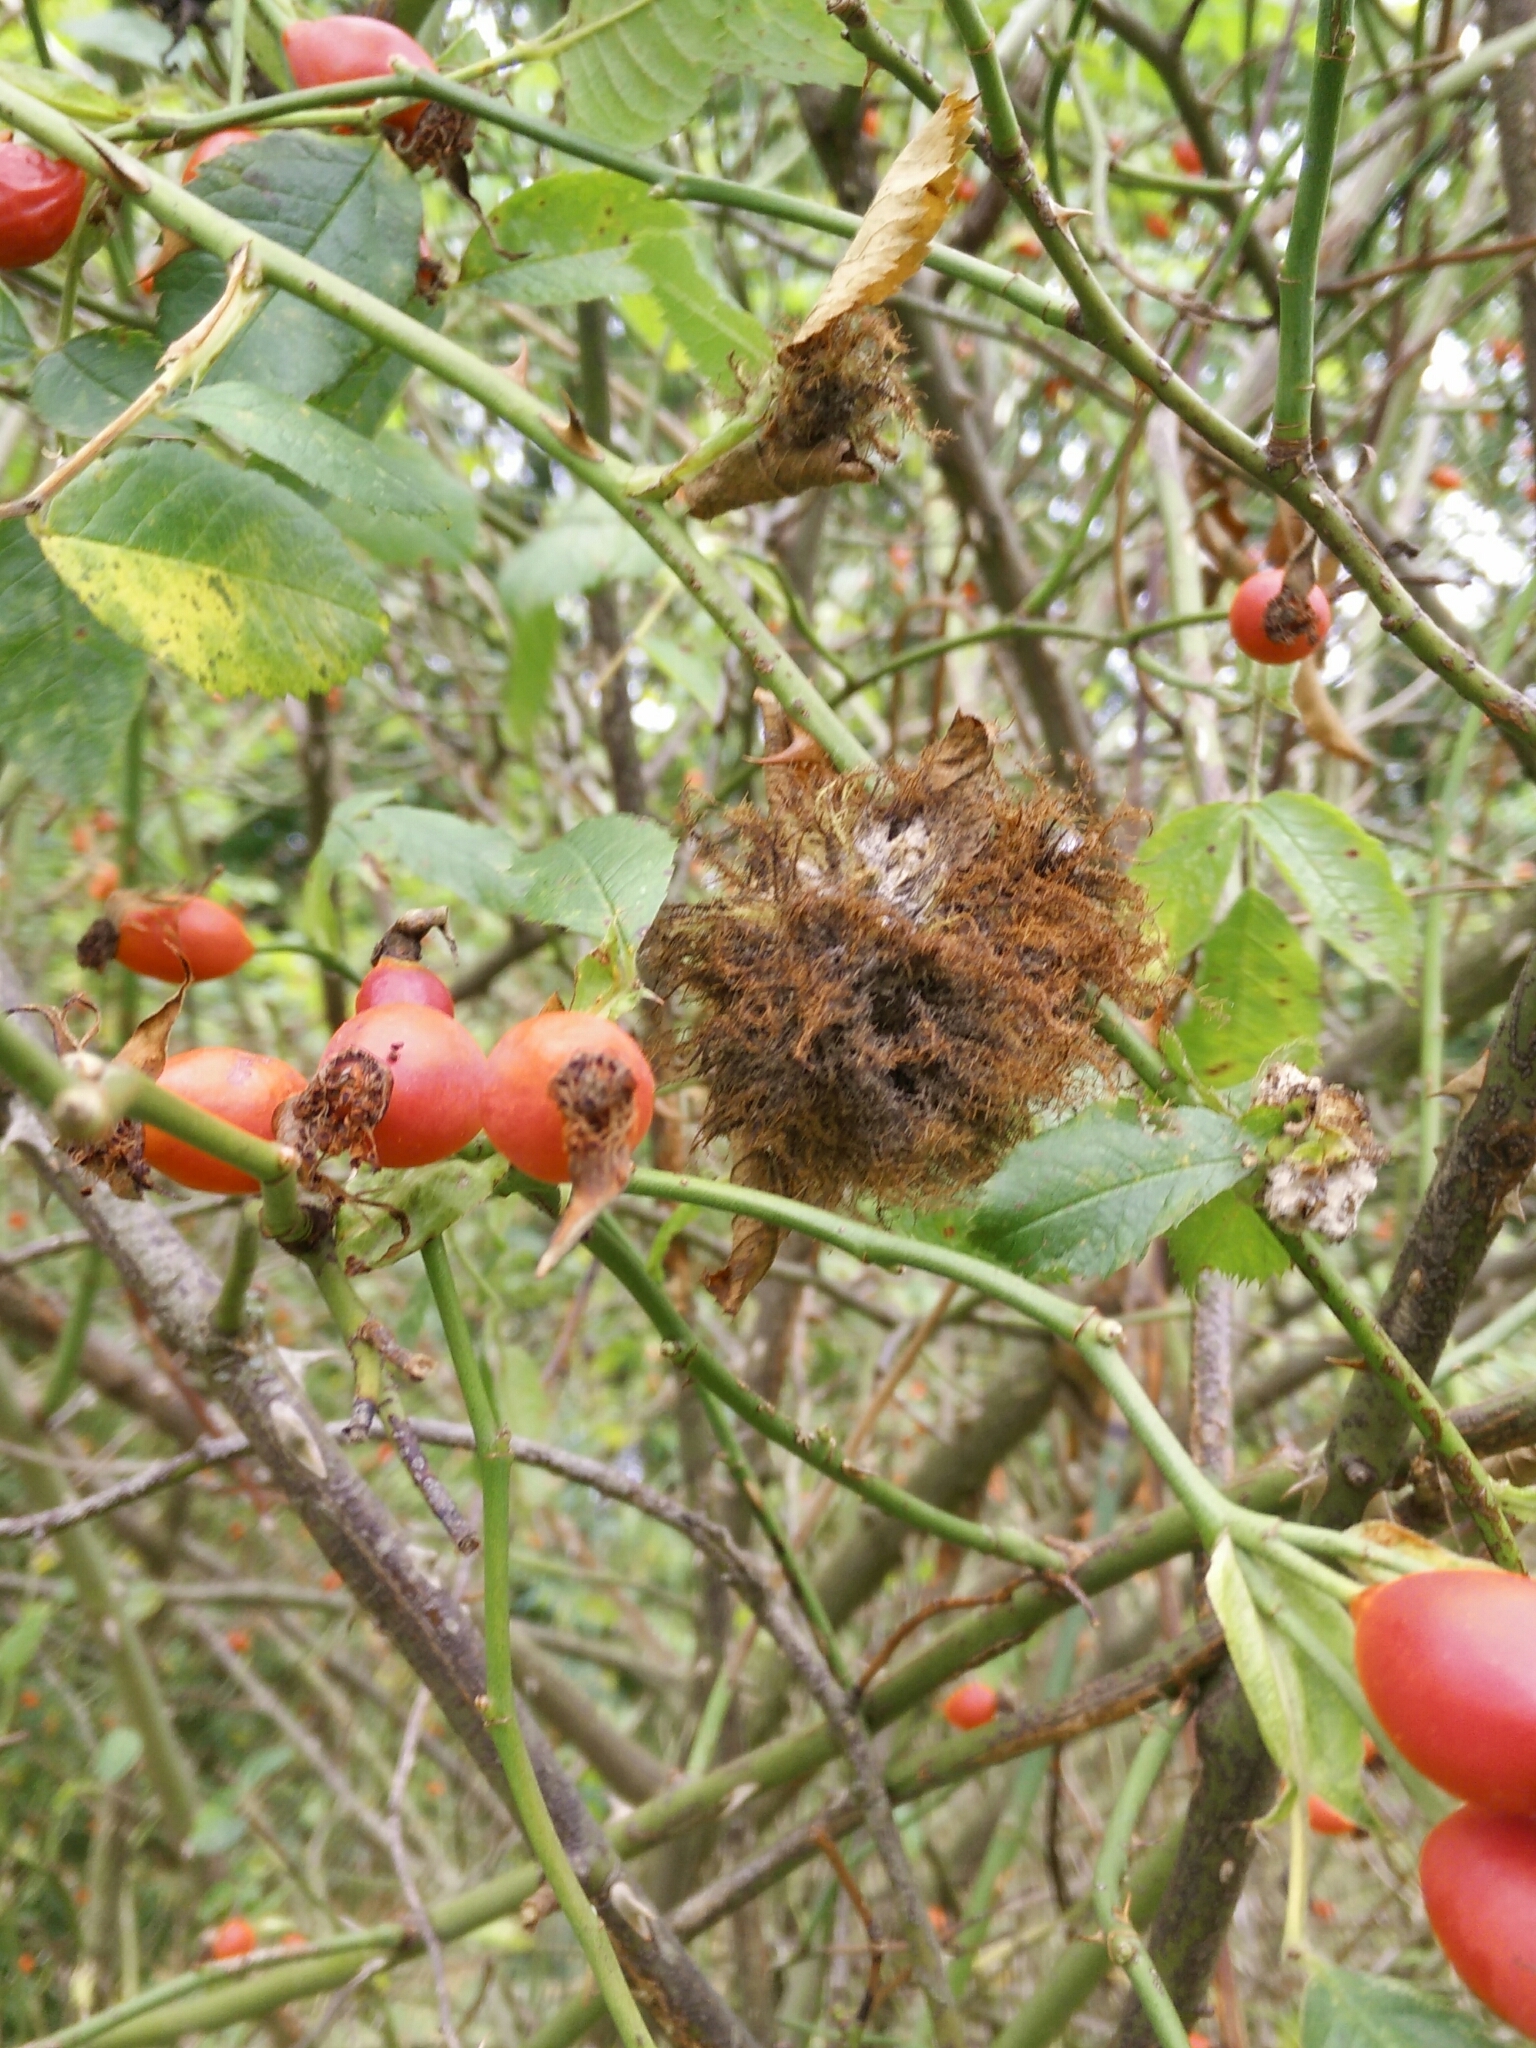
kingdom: Animalia
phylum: Arthropoda
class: Insecta
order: Hymenoptera
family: Cynipidae
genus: Diplolepis
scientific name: Diplolepis rosae
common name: Bedeguar gall
